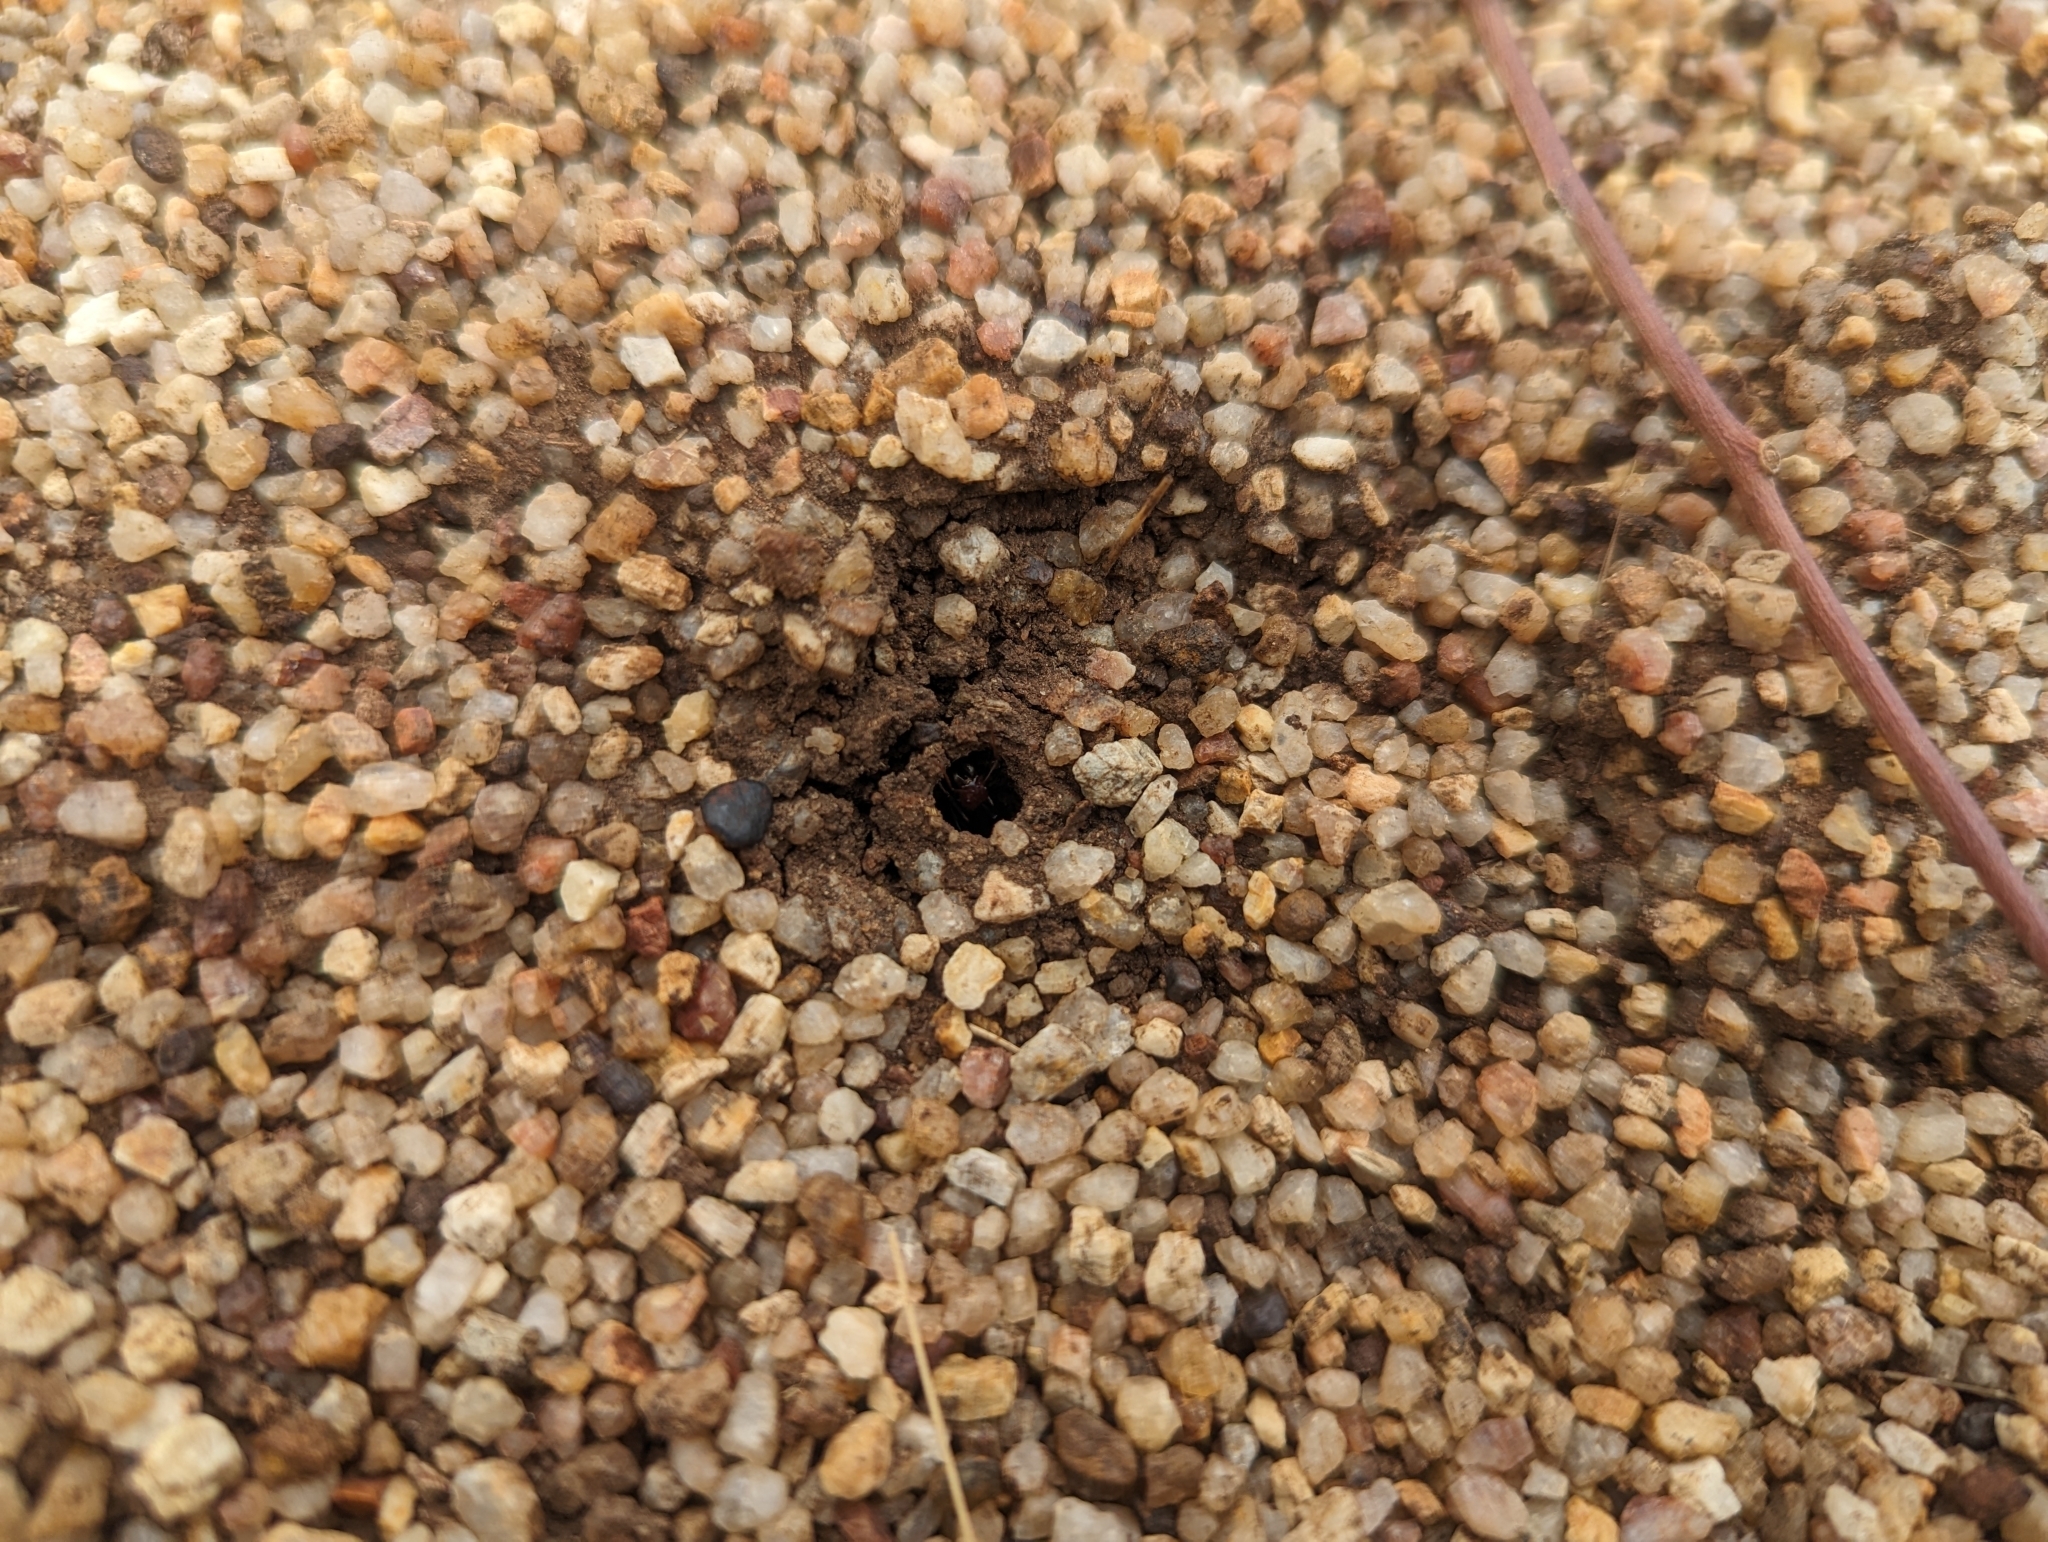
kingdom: Animalia
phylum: Arthropoda
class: Insecta
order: Hymenoptera
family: Formicidae
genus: Iridomyrmex
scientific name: Iridomyrmex purpureus
